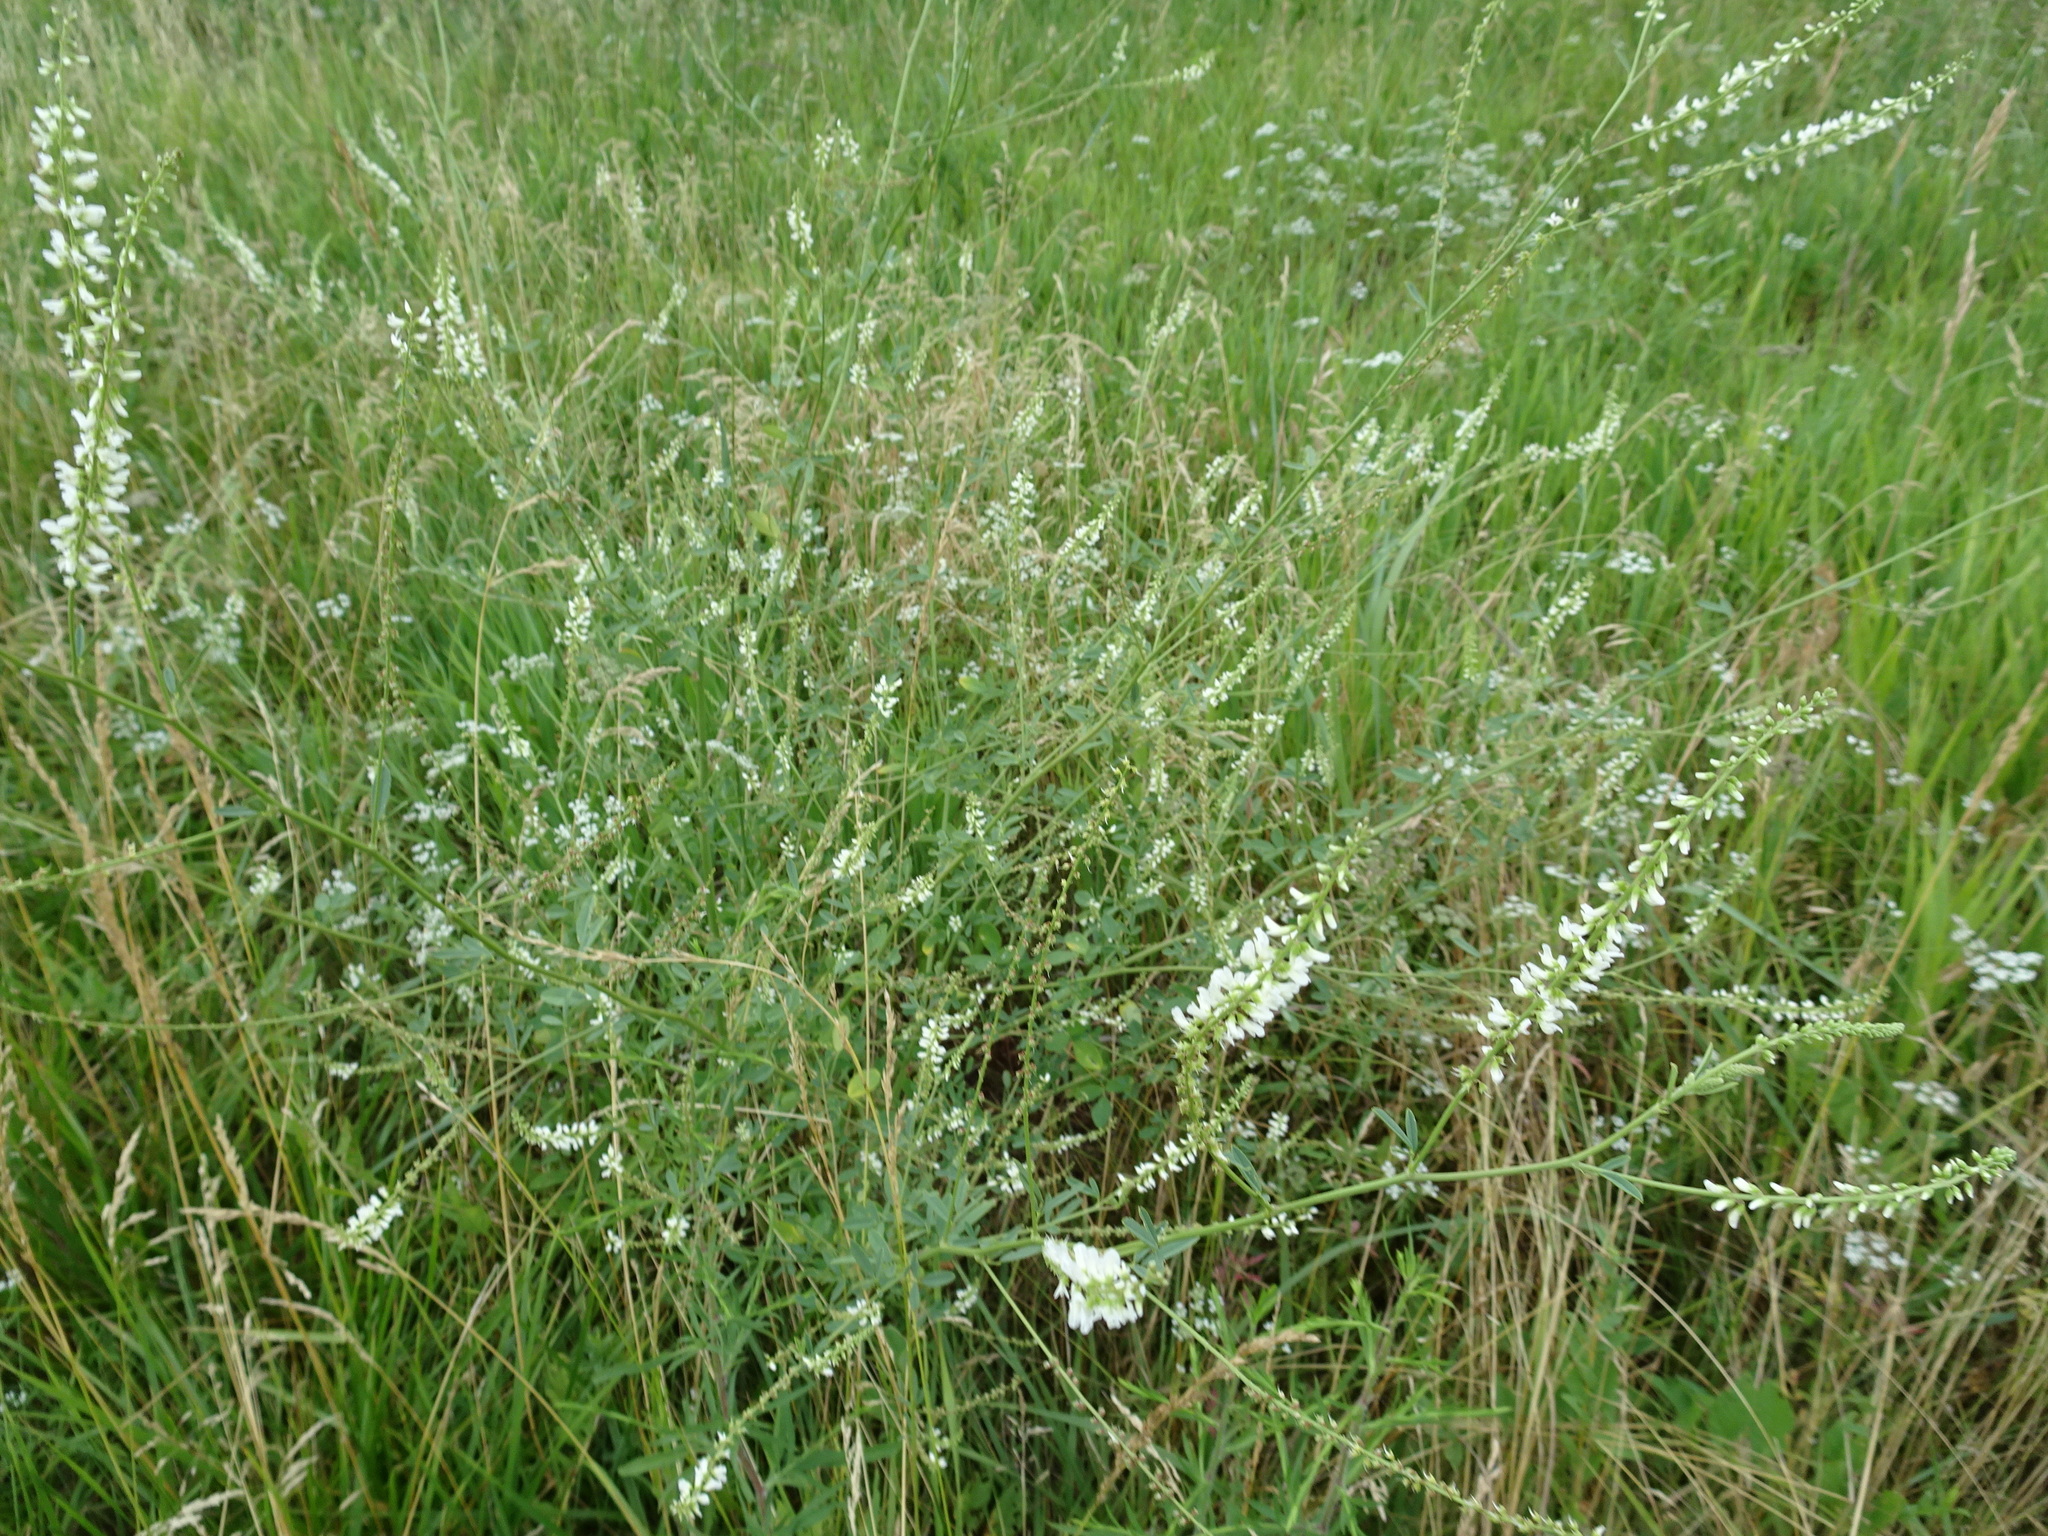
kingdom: Plantae
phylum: Tracheophyta
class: Magnoliopsida
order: Fabales
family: Fabaceae
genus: Melilotus
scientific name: Melilotus albus
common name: White melilot
